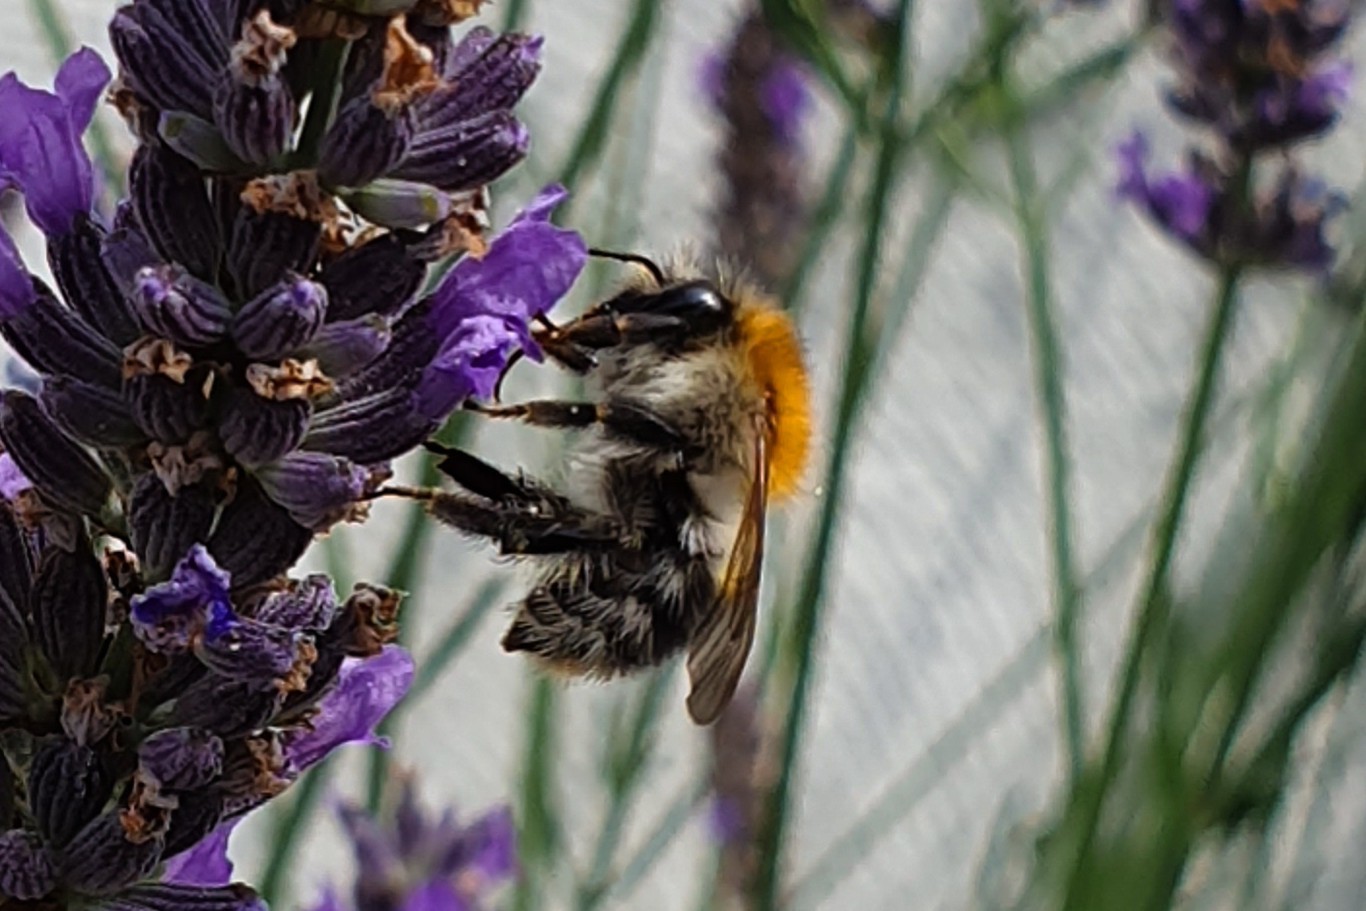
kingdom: Animalia
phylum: Arthropoda
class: Insecta
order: Hymenoptera
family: Apidae
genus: Bombus
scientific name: Bombus pascuorum
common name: Common carder bee
